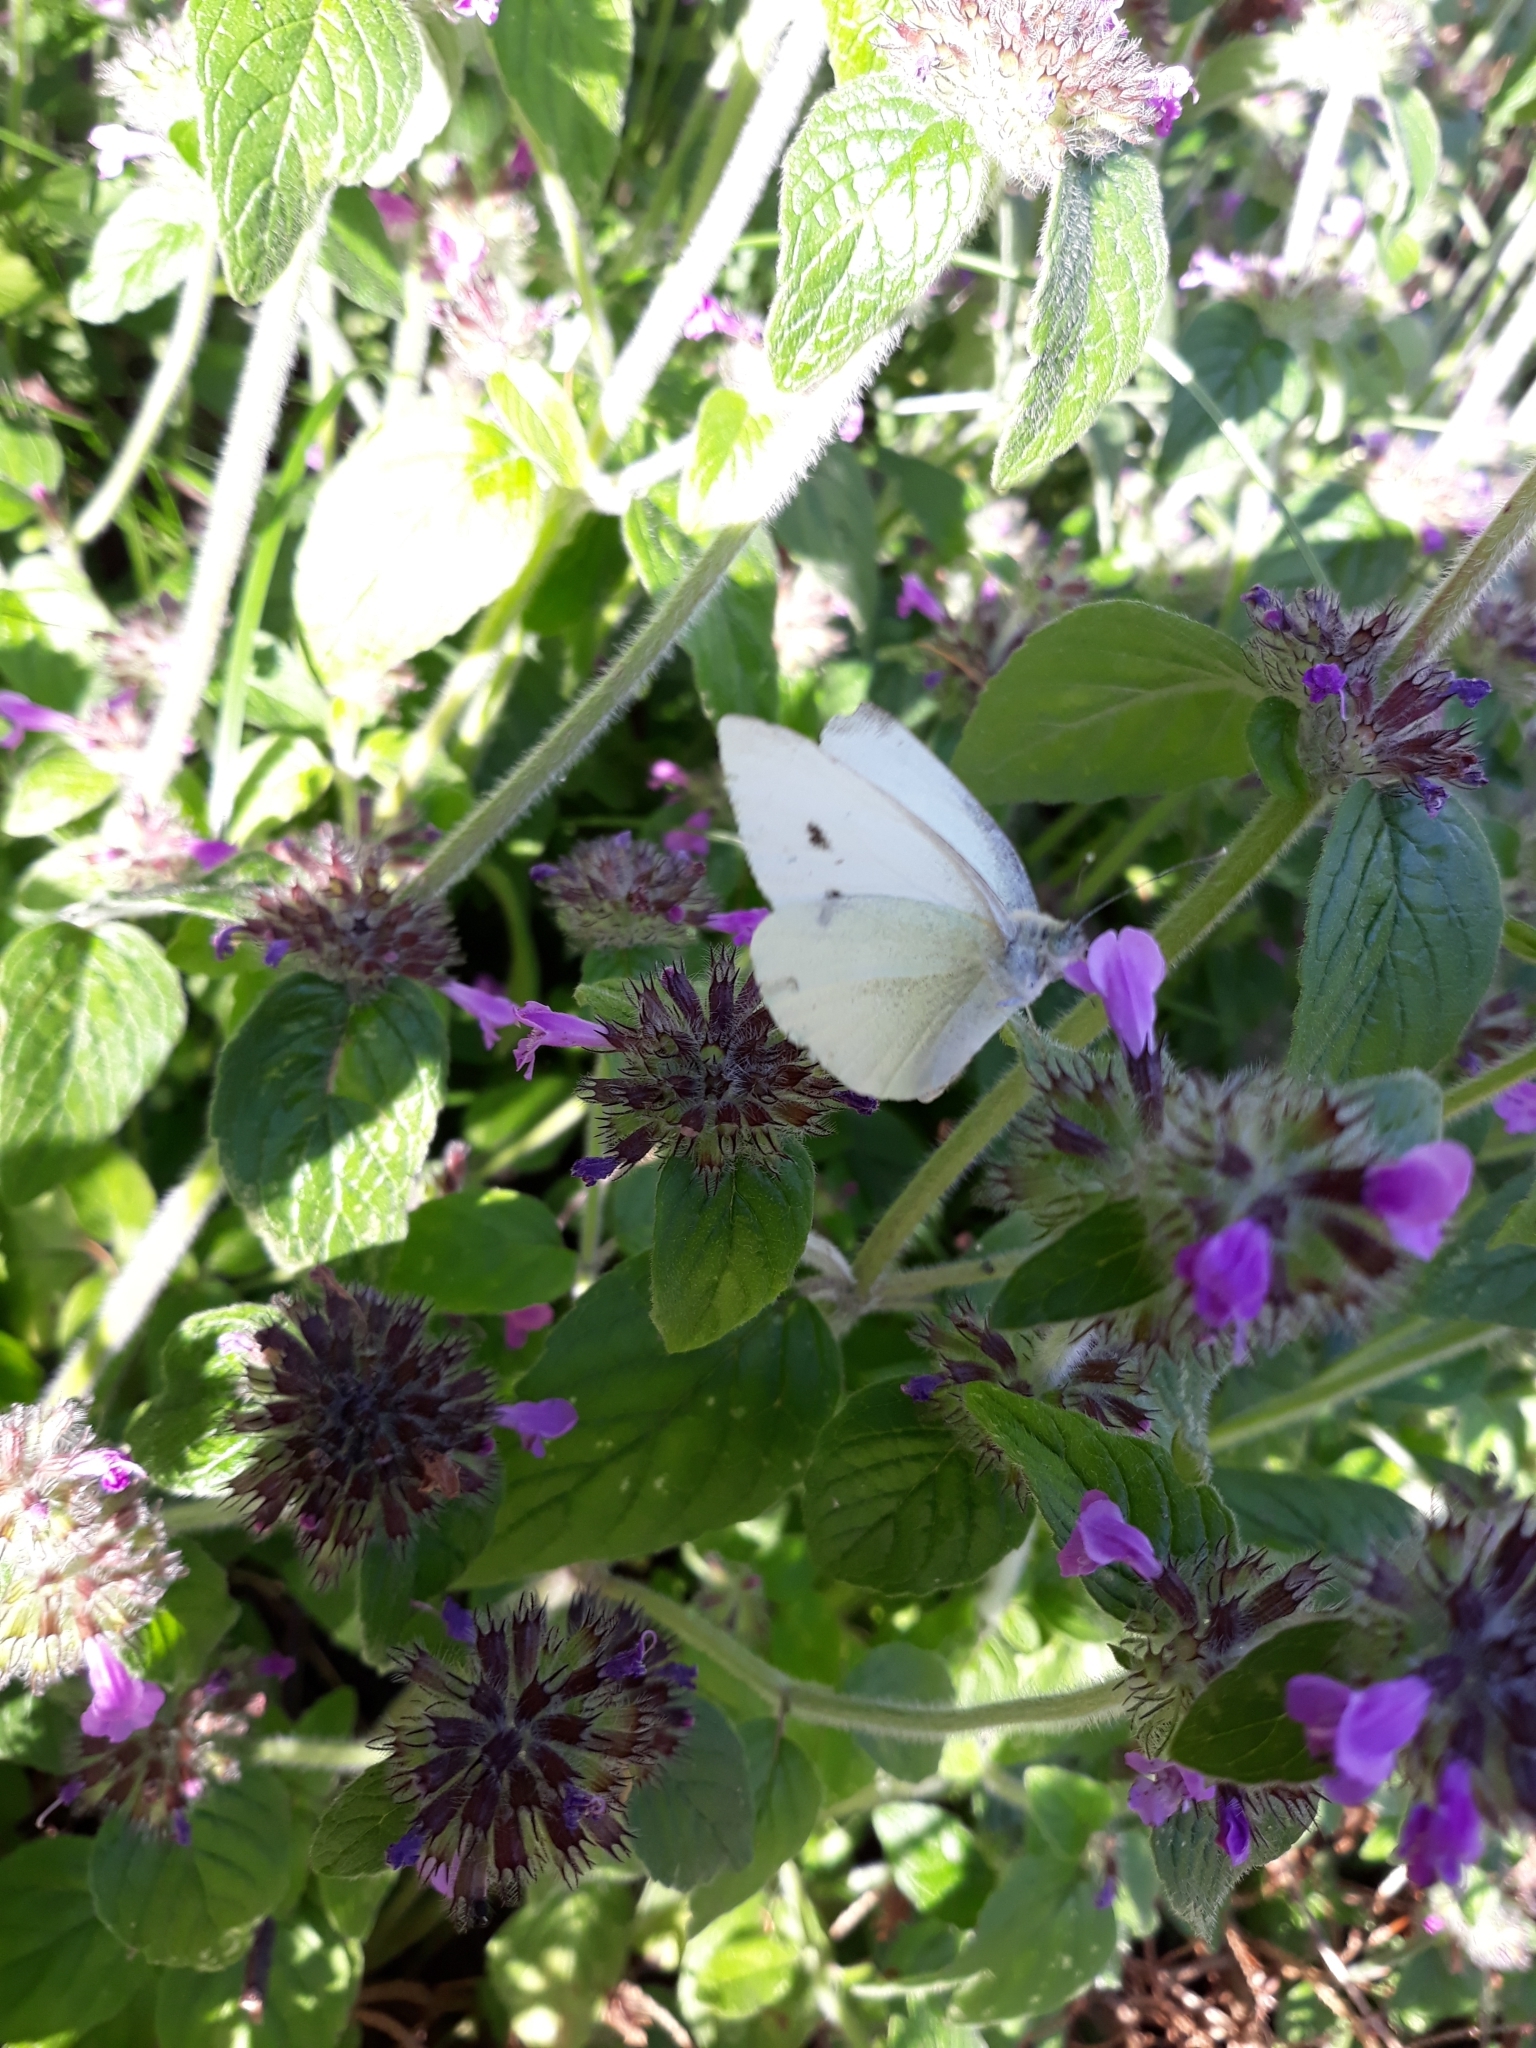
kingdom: Animalia
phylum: Arthropoda
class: Insecta
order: Lepidoptera
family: Pieridae
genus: Pieris
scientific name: Pieris rapae
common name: Small white
